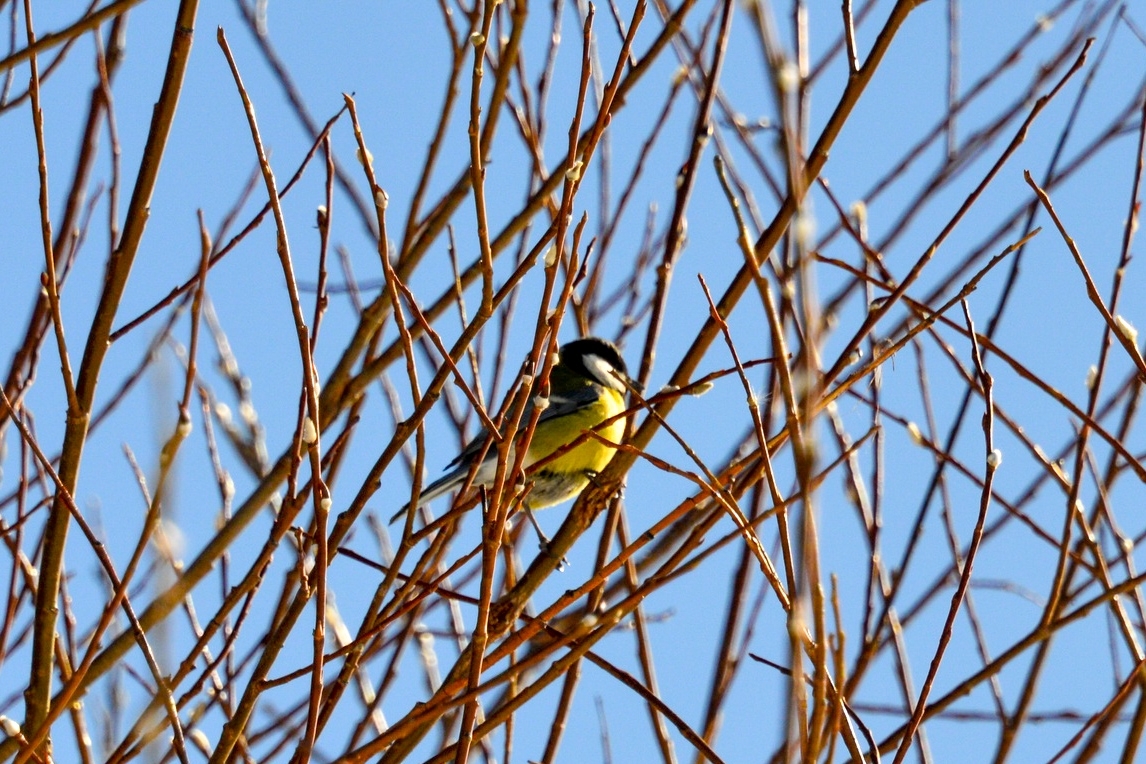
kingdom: Animalia
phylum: Chordata
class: Aves
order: Passeriformes
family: Paridae
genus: Parus
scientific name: Parus major
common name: Great tit
